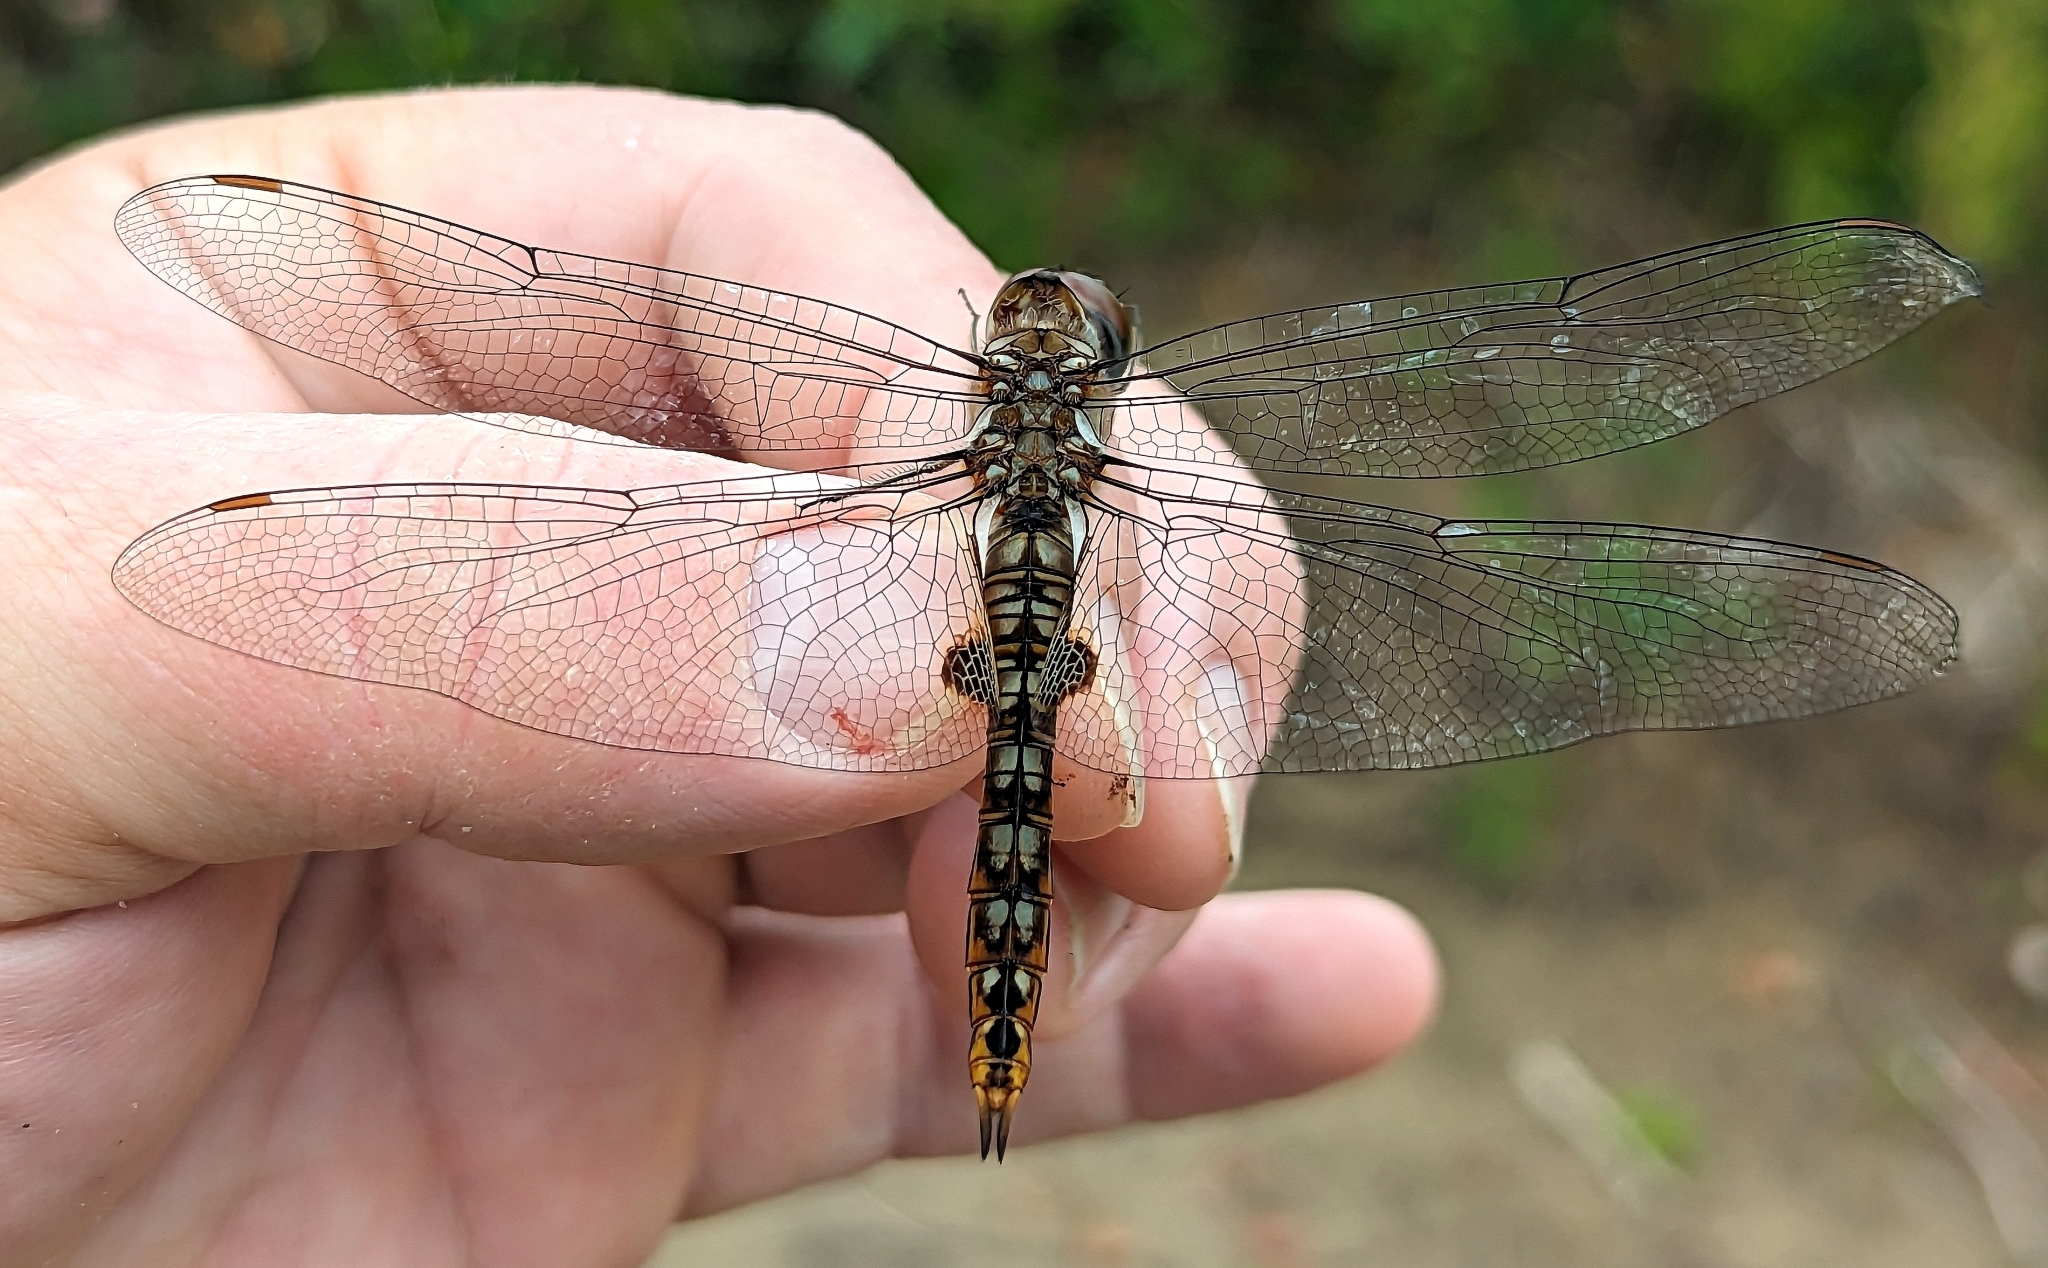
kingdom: Animalia
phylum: Arthropoda
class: Insecta
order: Odonata
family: Libellulidae
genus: Pantala
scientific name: Pantala hymenaea
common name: Spot-winged glider
